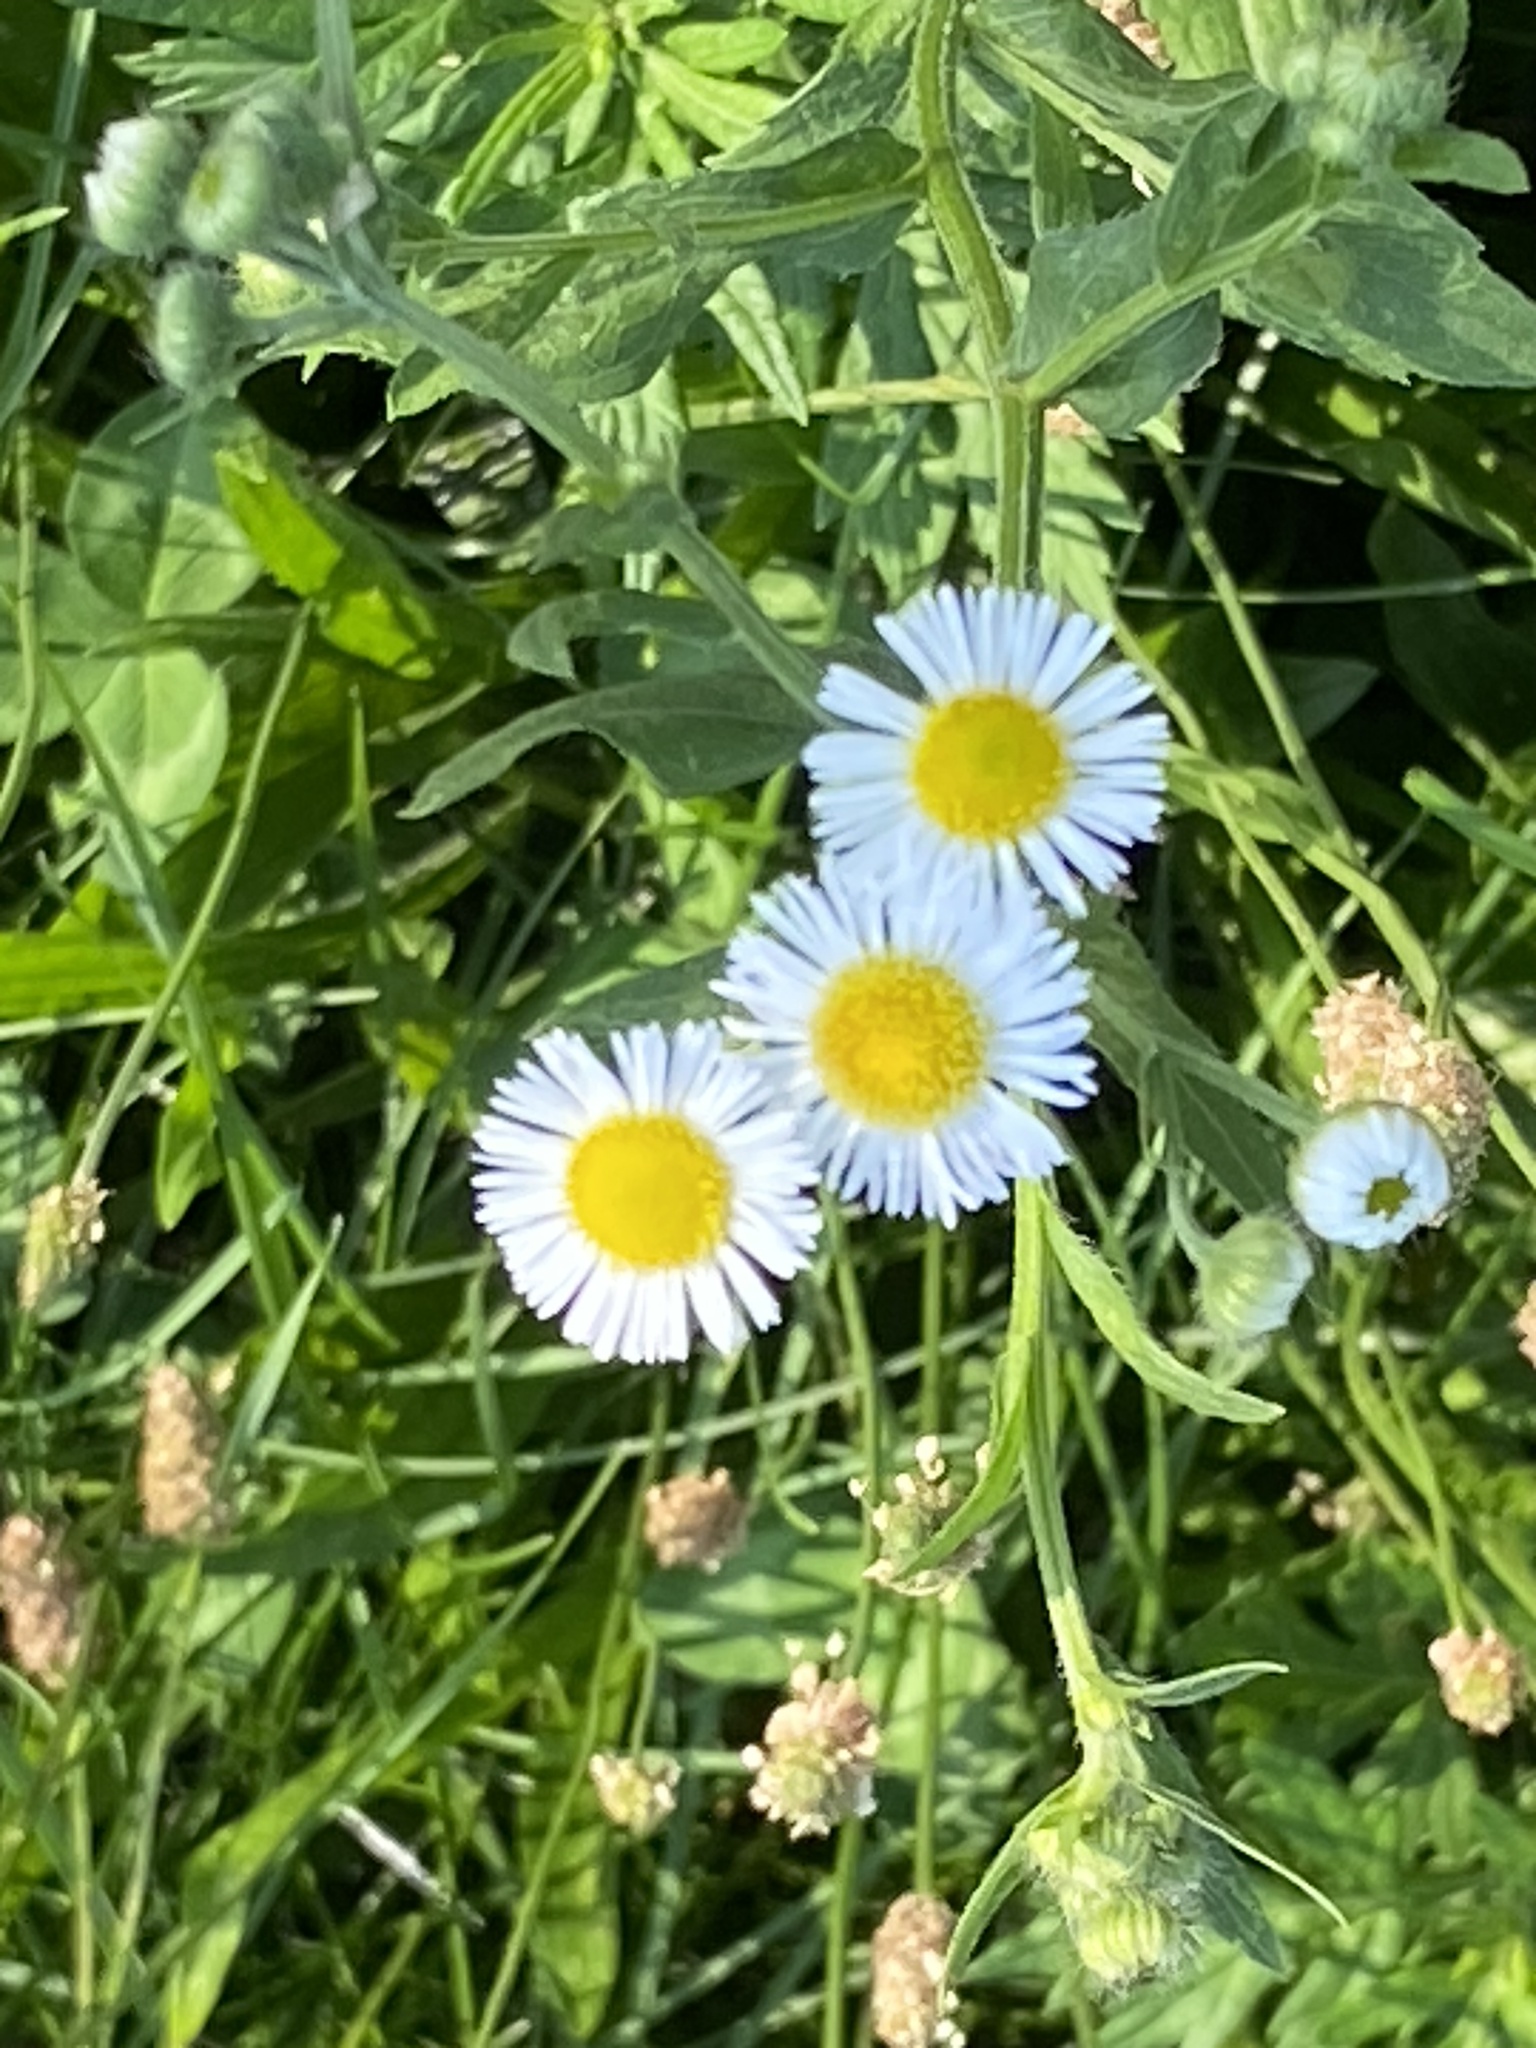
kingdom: Plantae
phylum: Tracheophyta
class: Magnoliopsida
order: Asterales
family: Asteraceae
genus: Erigeron
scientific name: Erigeron annuus
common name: Tall fleabane
